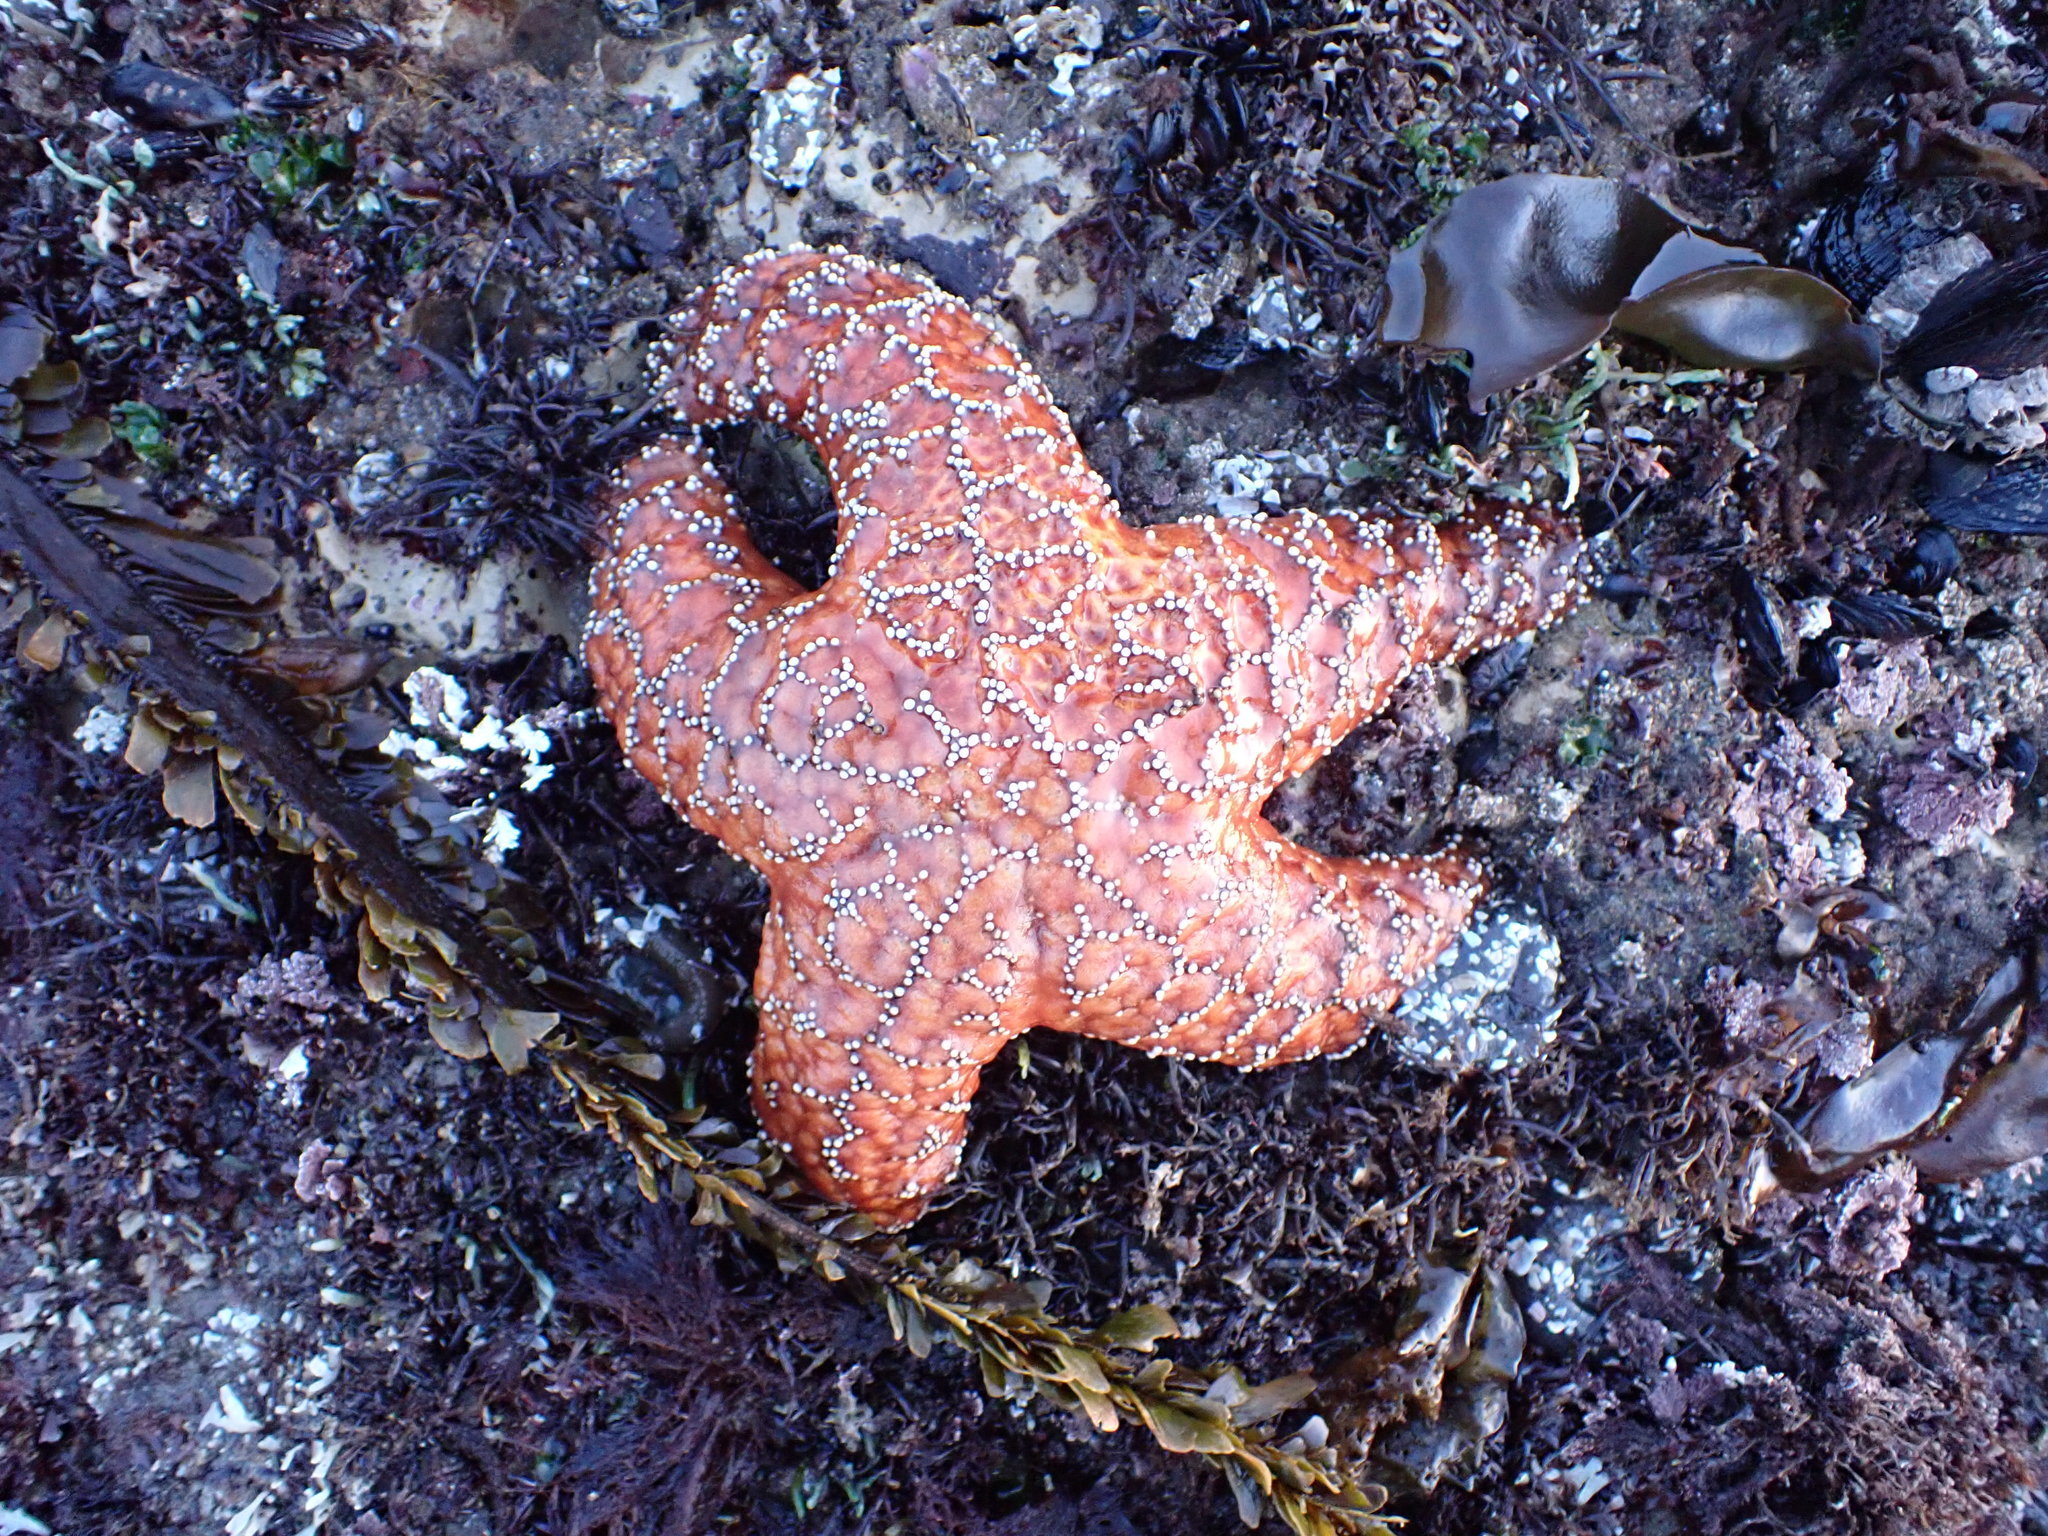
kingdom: Animalia
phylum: Echinodermata
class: Asteroidea
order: Forcipulatida
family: Asteriidae
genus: Pisaster
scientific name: Pisaster ochraceus
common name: Ochre stars
